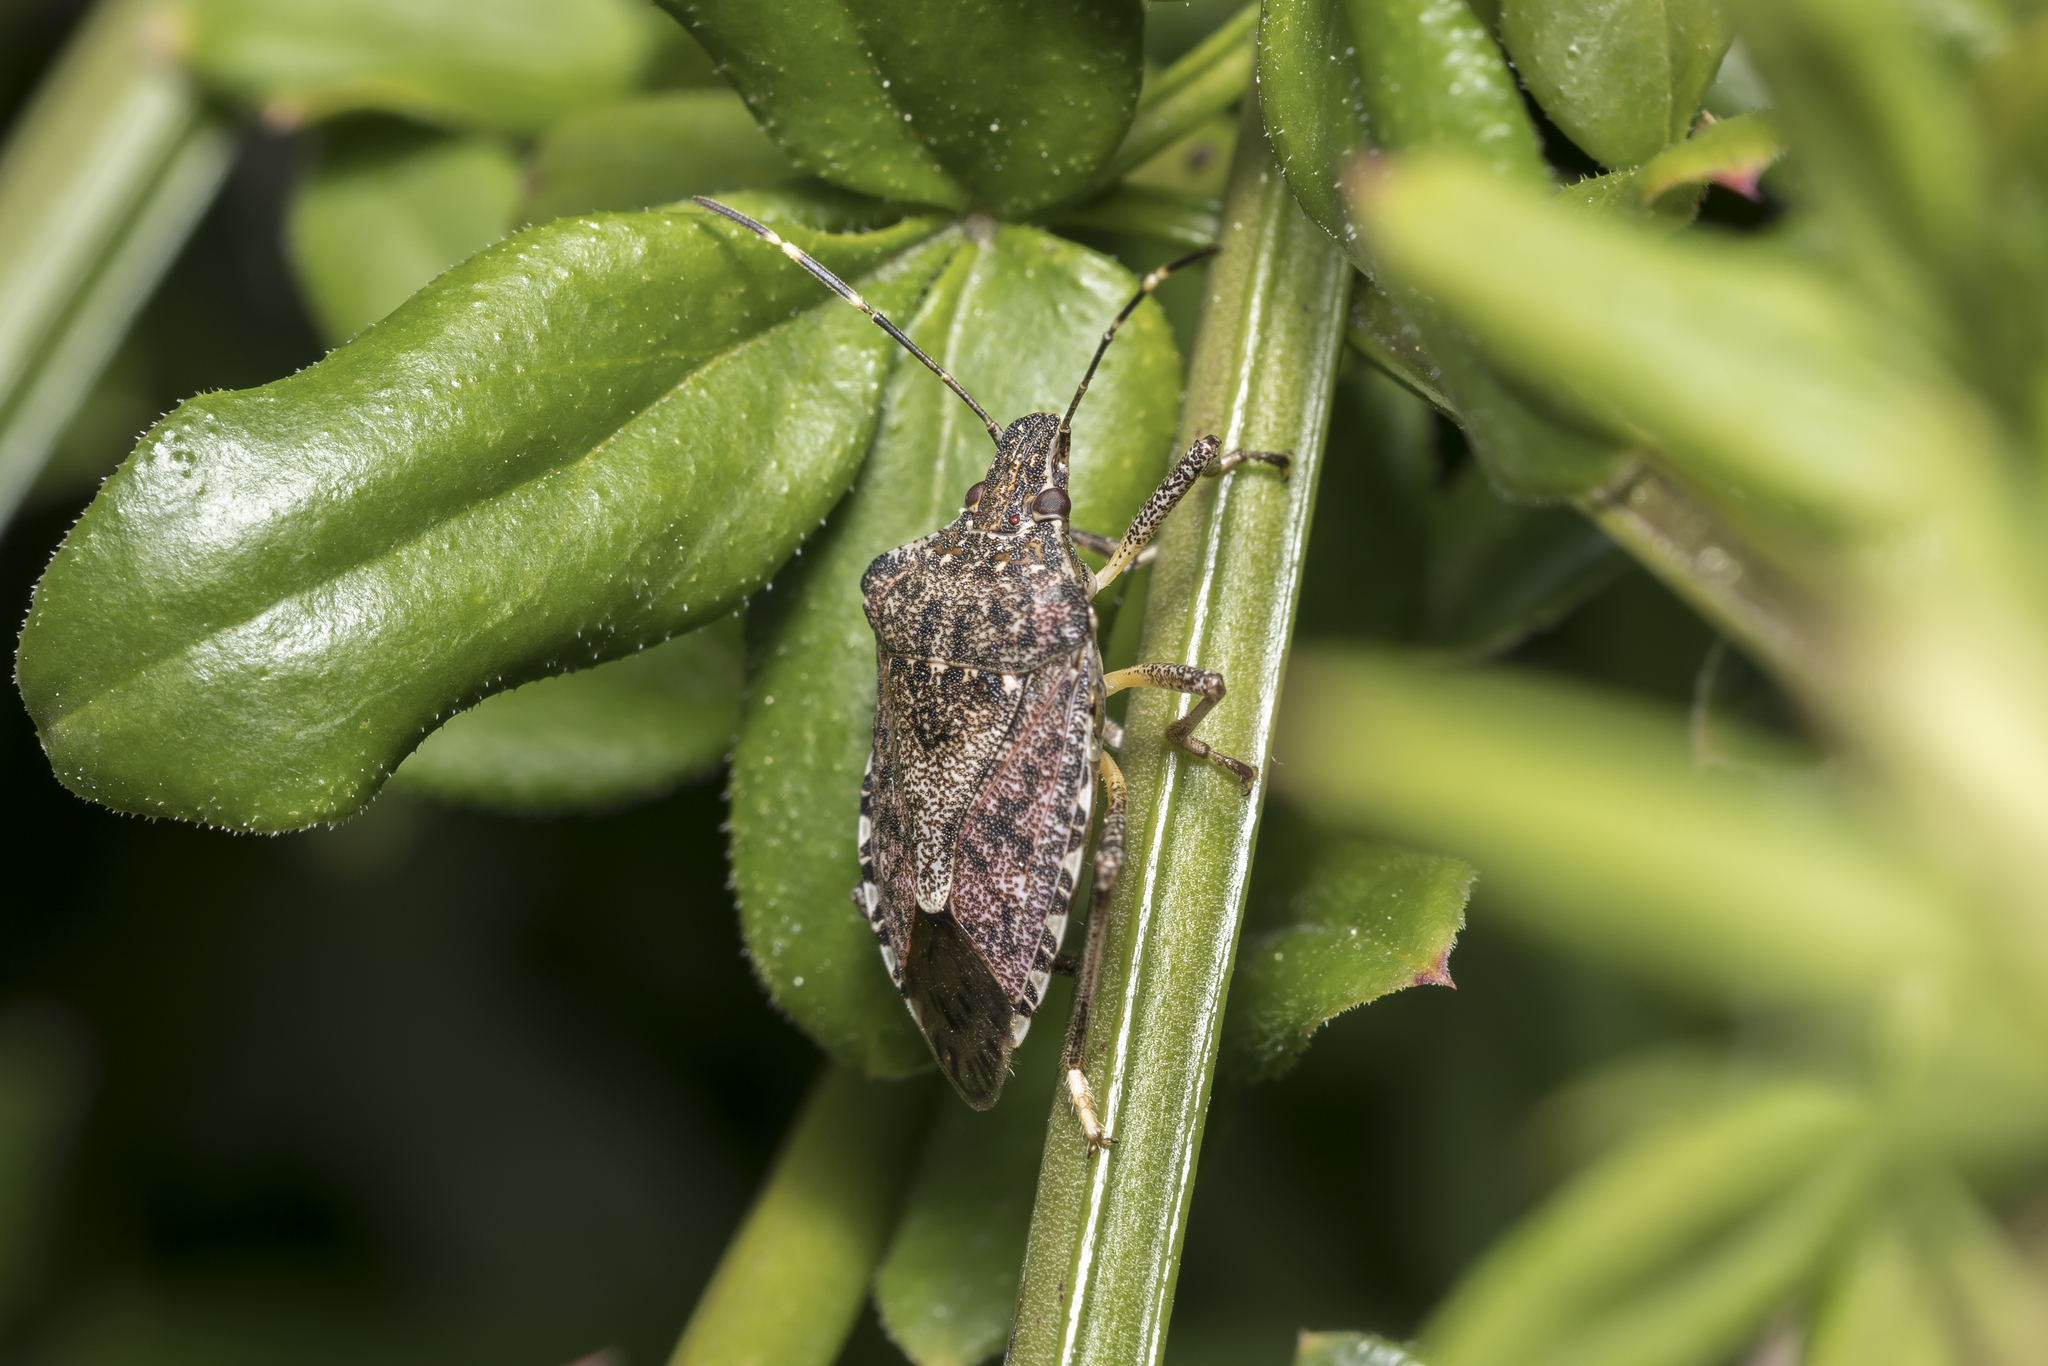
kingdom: Animalia
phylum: Arthropoda
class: Insecta
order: Hemiptera
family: Pentatomidae
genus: Halyomorpha
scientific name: Halyomorpha halys
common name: Brown marmorated stink bug
